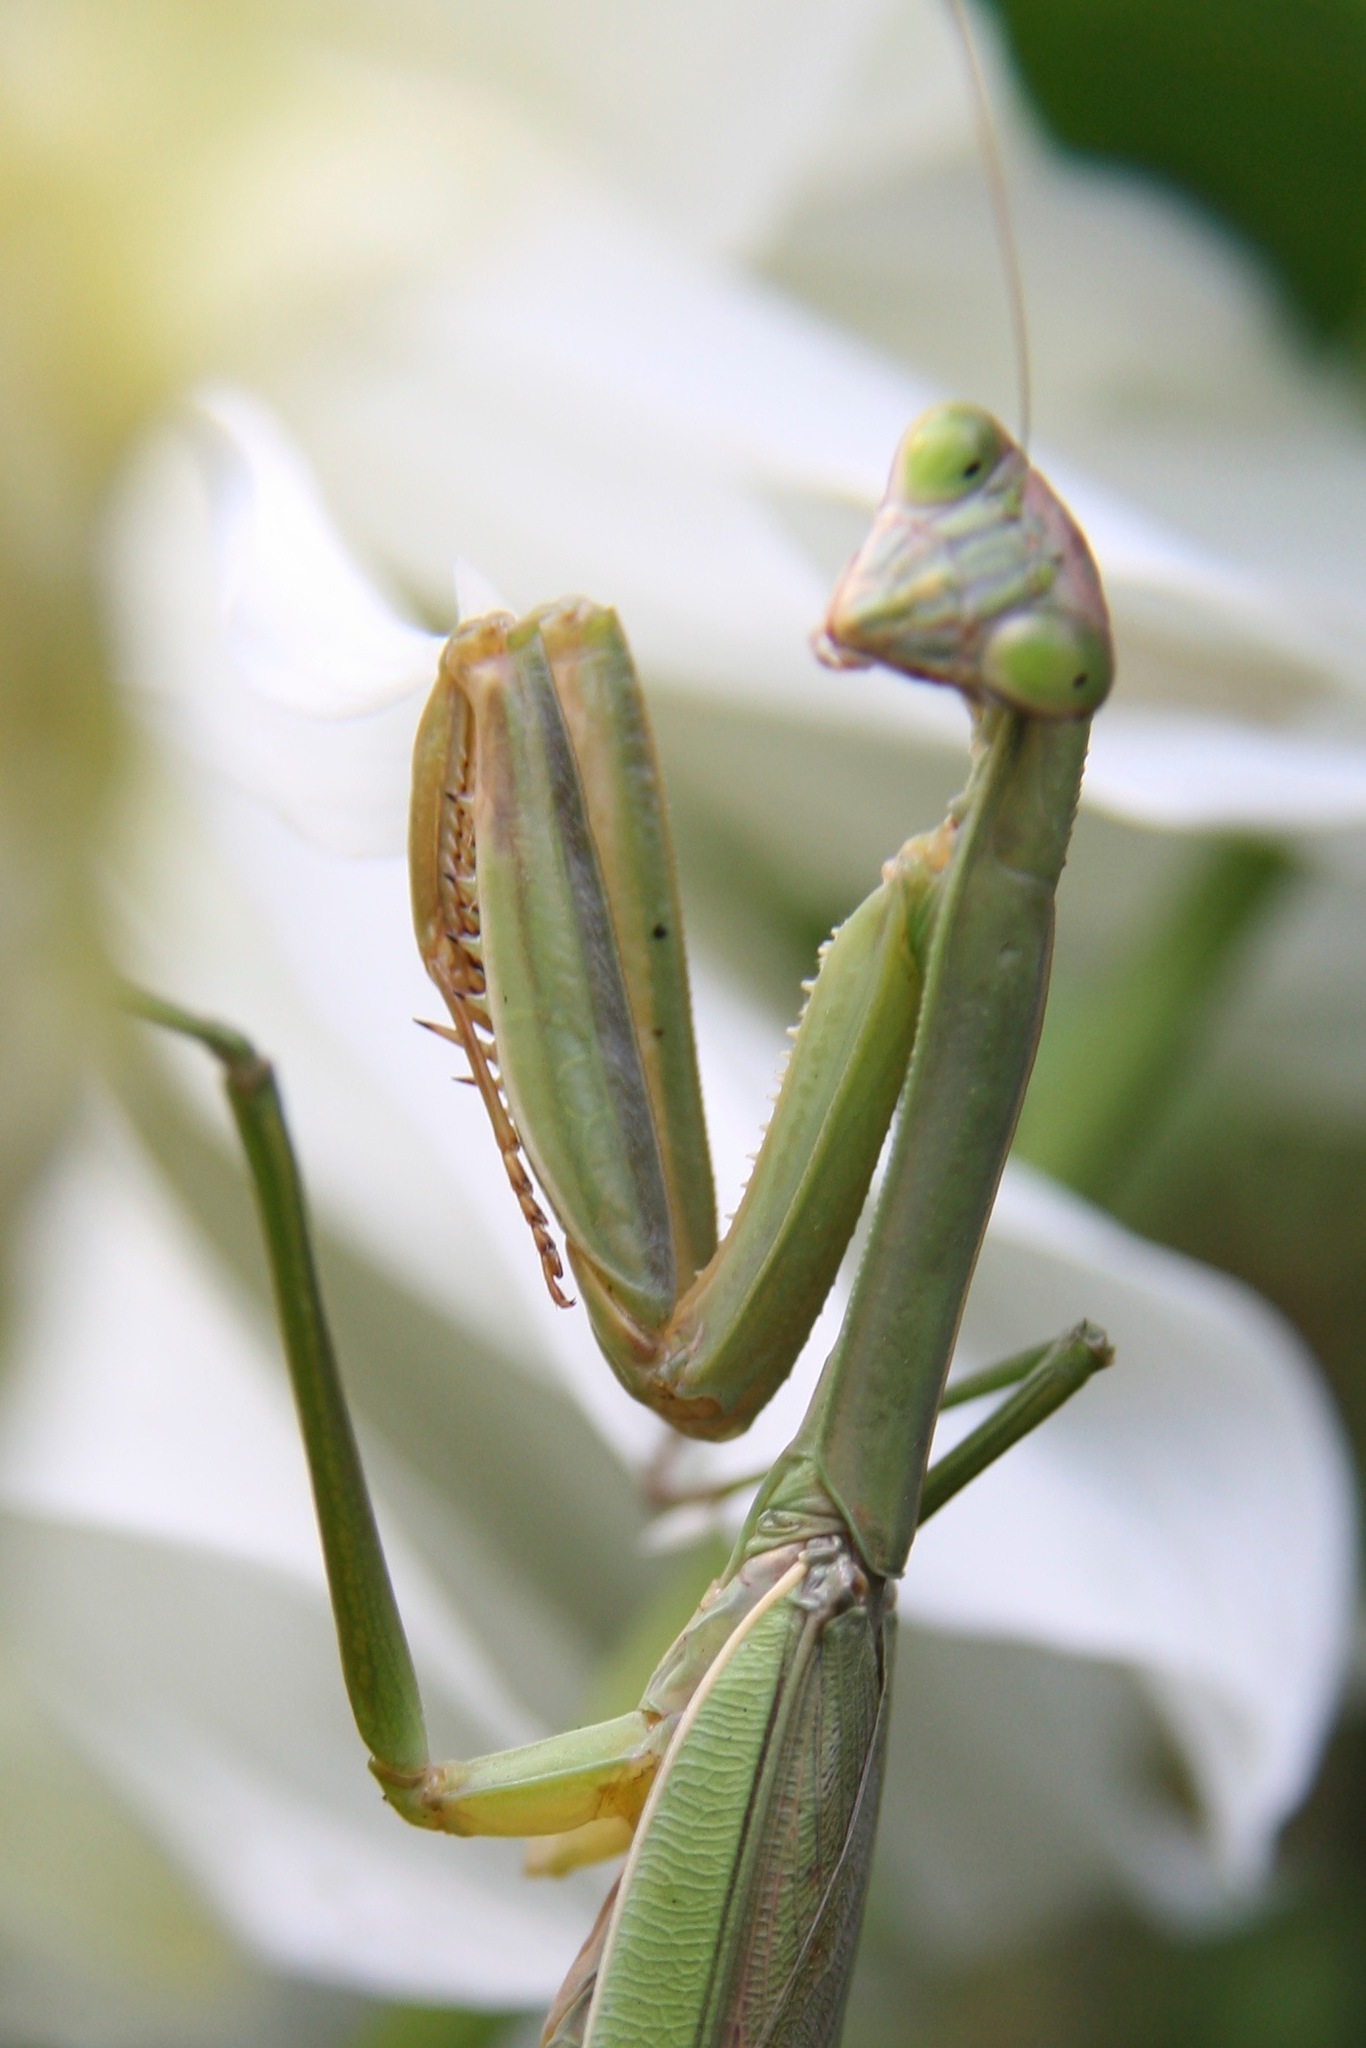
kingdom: Animalia
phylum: Arthropoda
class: Insecta
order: Mantodea
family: Mantidae
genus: Tenodera
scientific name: Tenodera sinensis
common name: Chinese mantis
